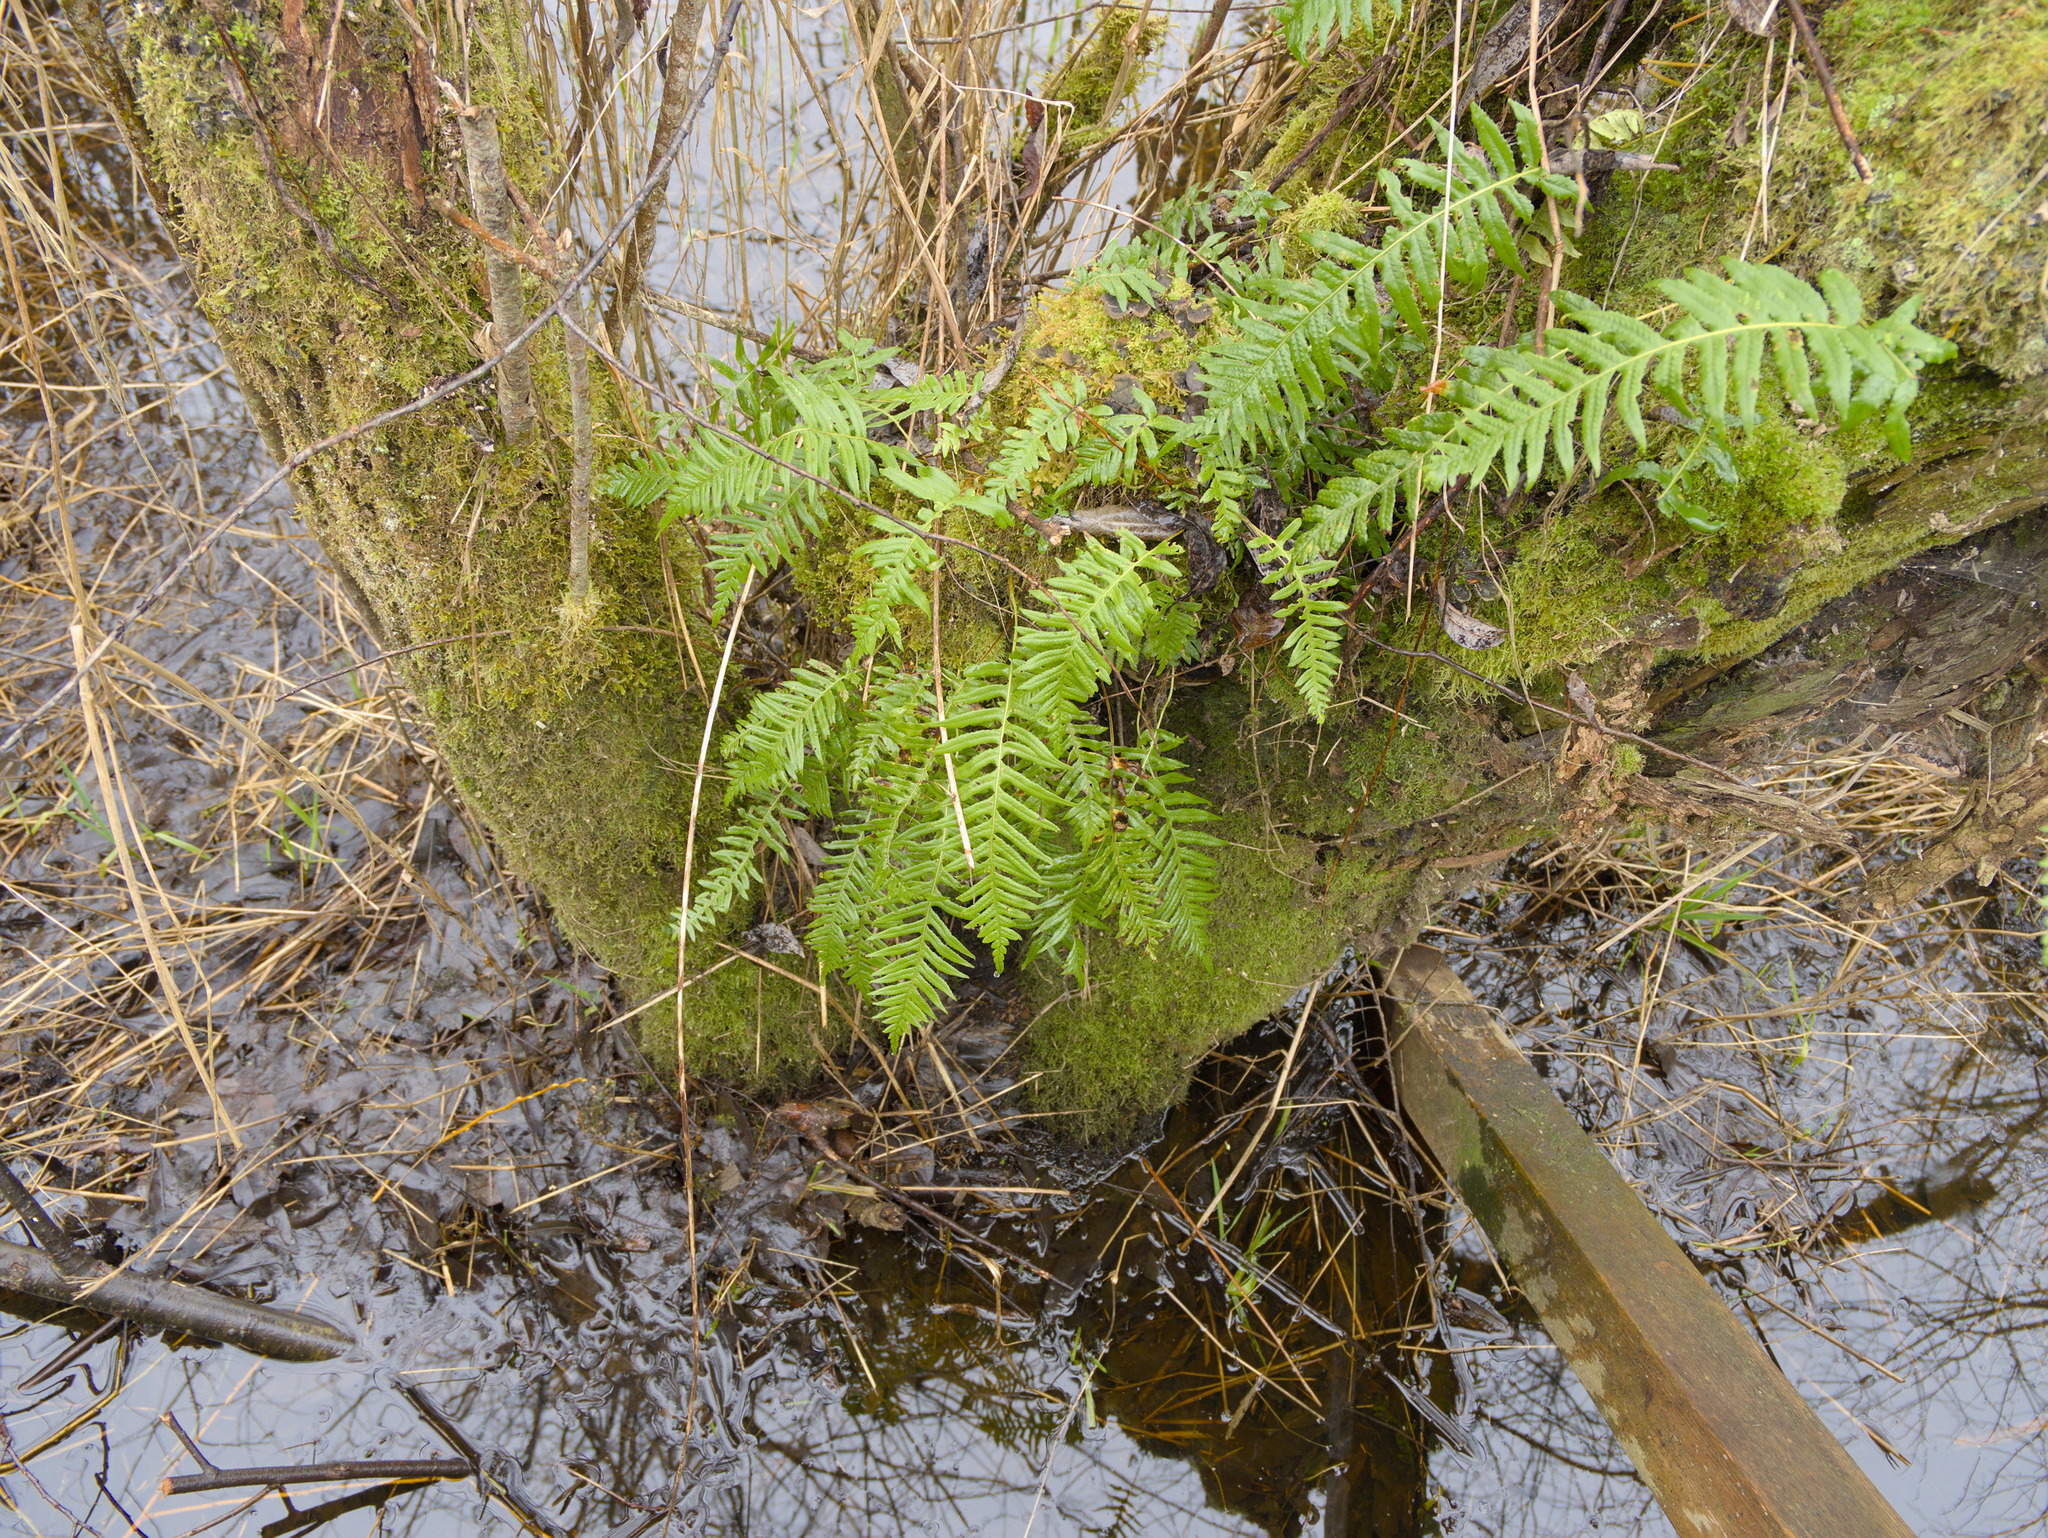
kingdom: Plantae
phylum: Tracheophyta
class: Polypodiopsida
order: Polypodiales
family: Polypodiaceae
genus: Polypodium
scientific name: Polypodium glycyrrhiza
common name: Licorice fern
